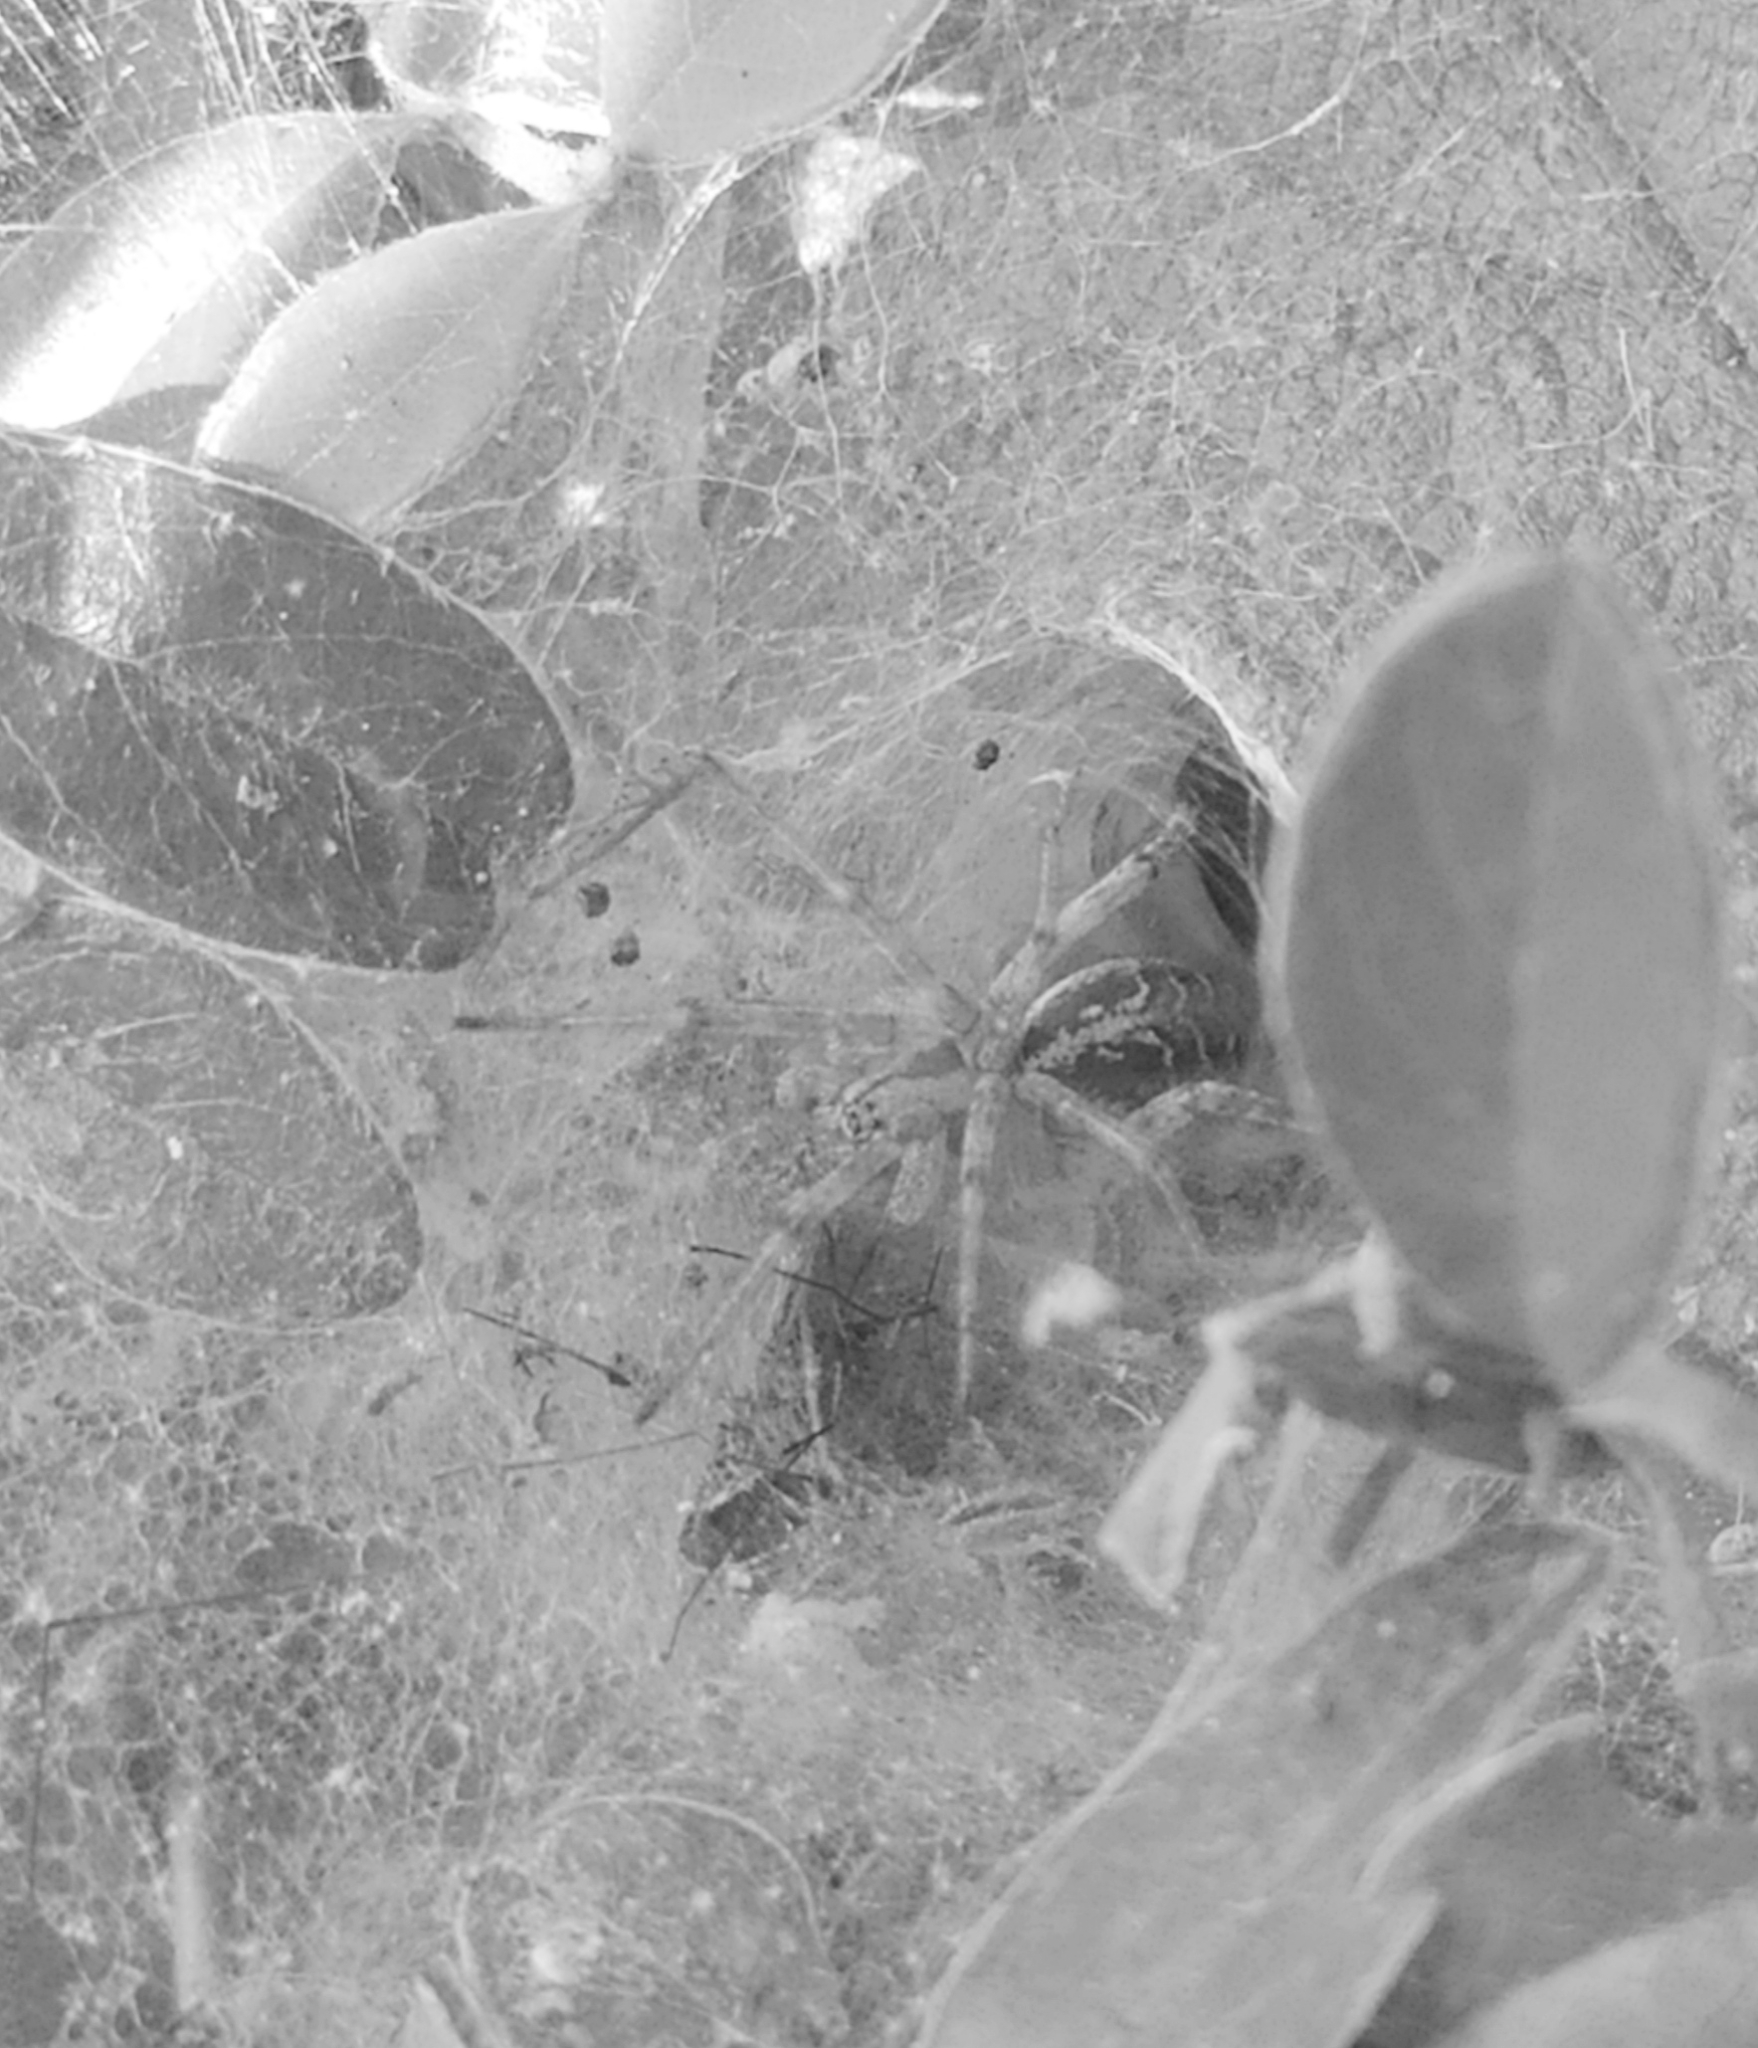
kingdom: Animalia
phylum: Arthropoda
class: Arachnida
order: Araneae
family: Agelenidae
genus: Agelena
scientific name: Agelena labyrinthica
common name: Labyrinth spider
